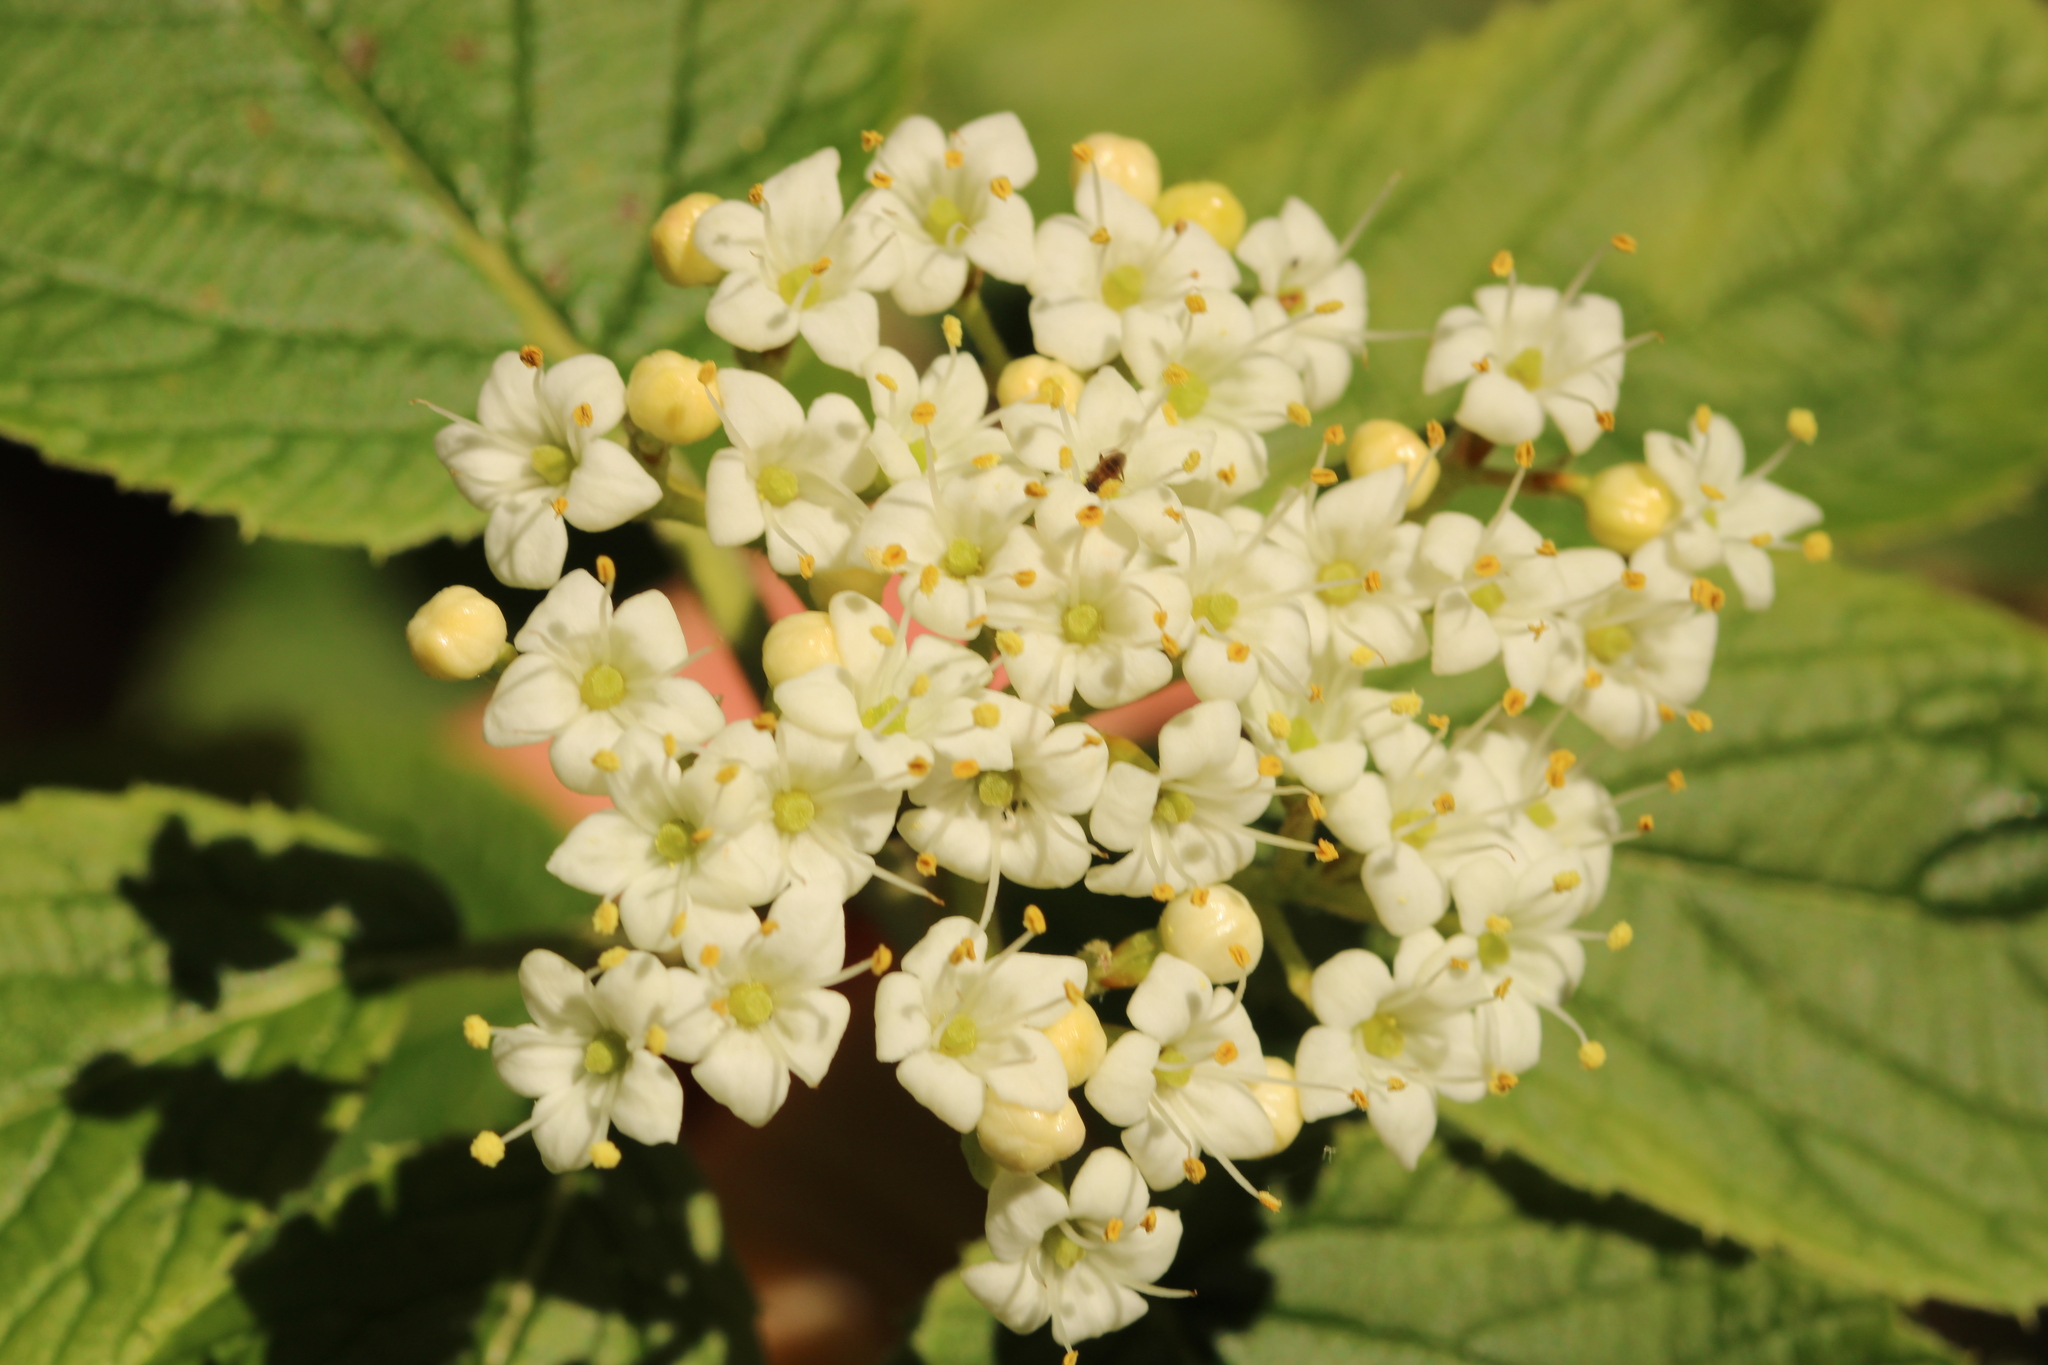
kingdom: Plantae
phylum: Tracheophyta
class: Magnoliopsida
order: Dipsacales
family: Viburnaceae
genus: Viburnum
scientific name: Viburnum lantana
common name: Wayfaring tree
